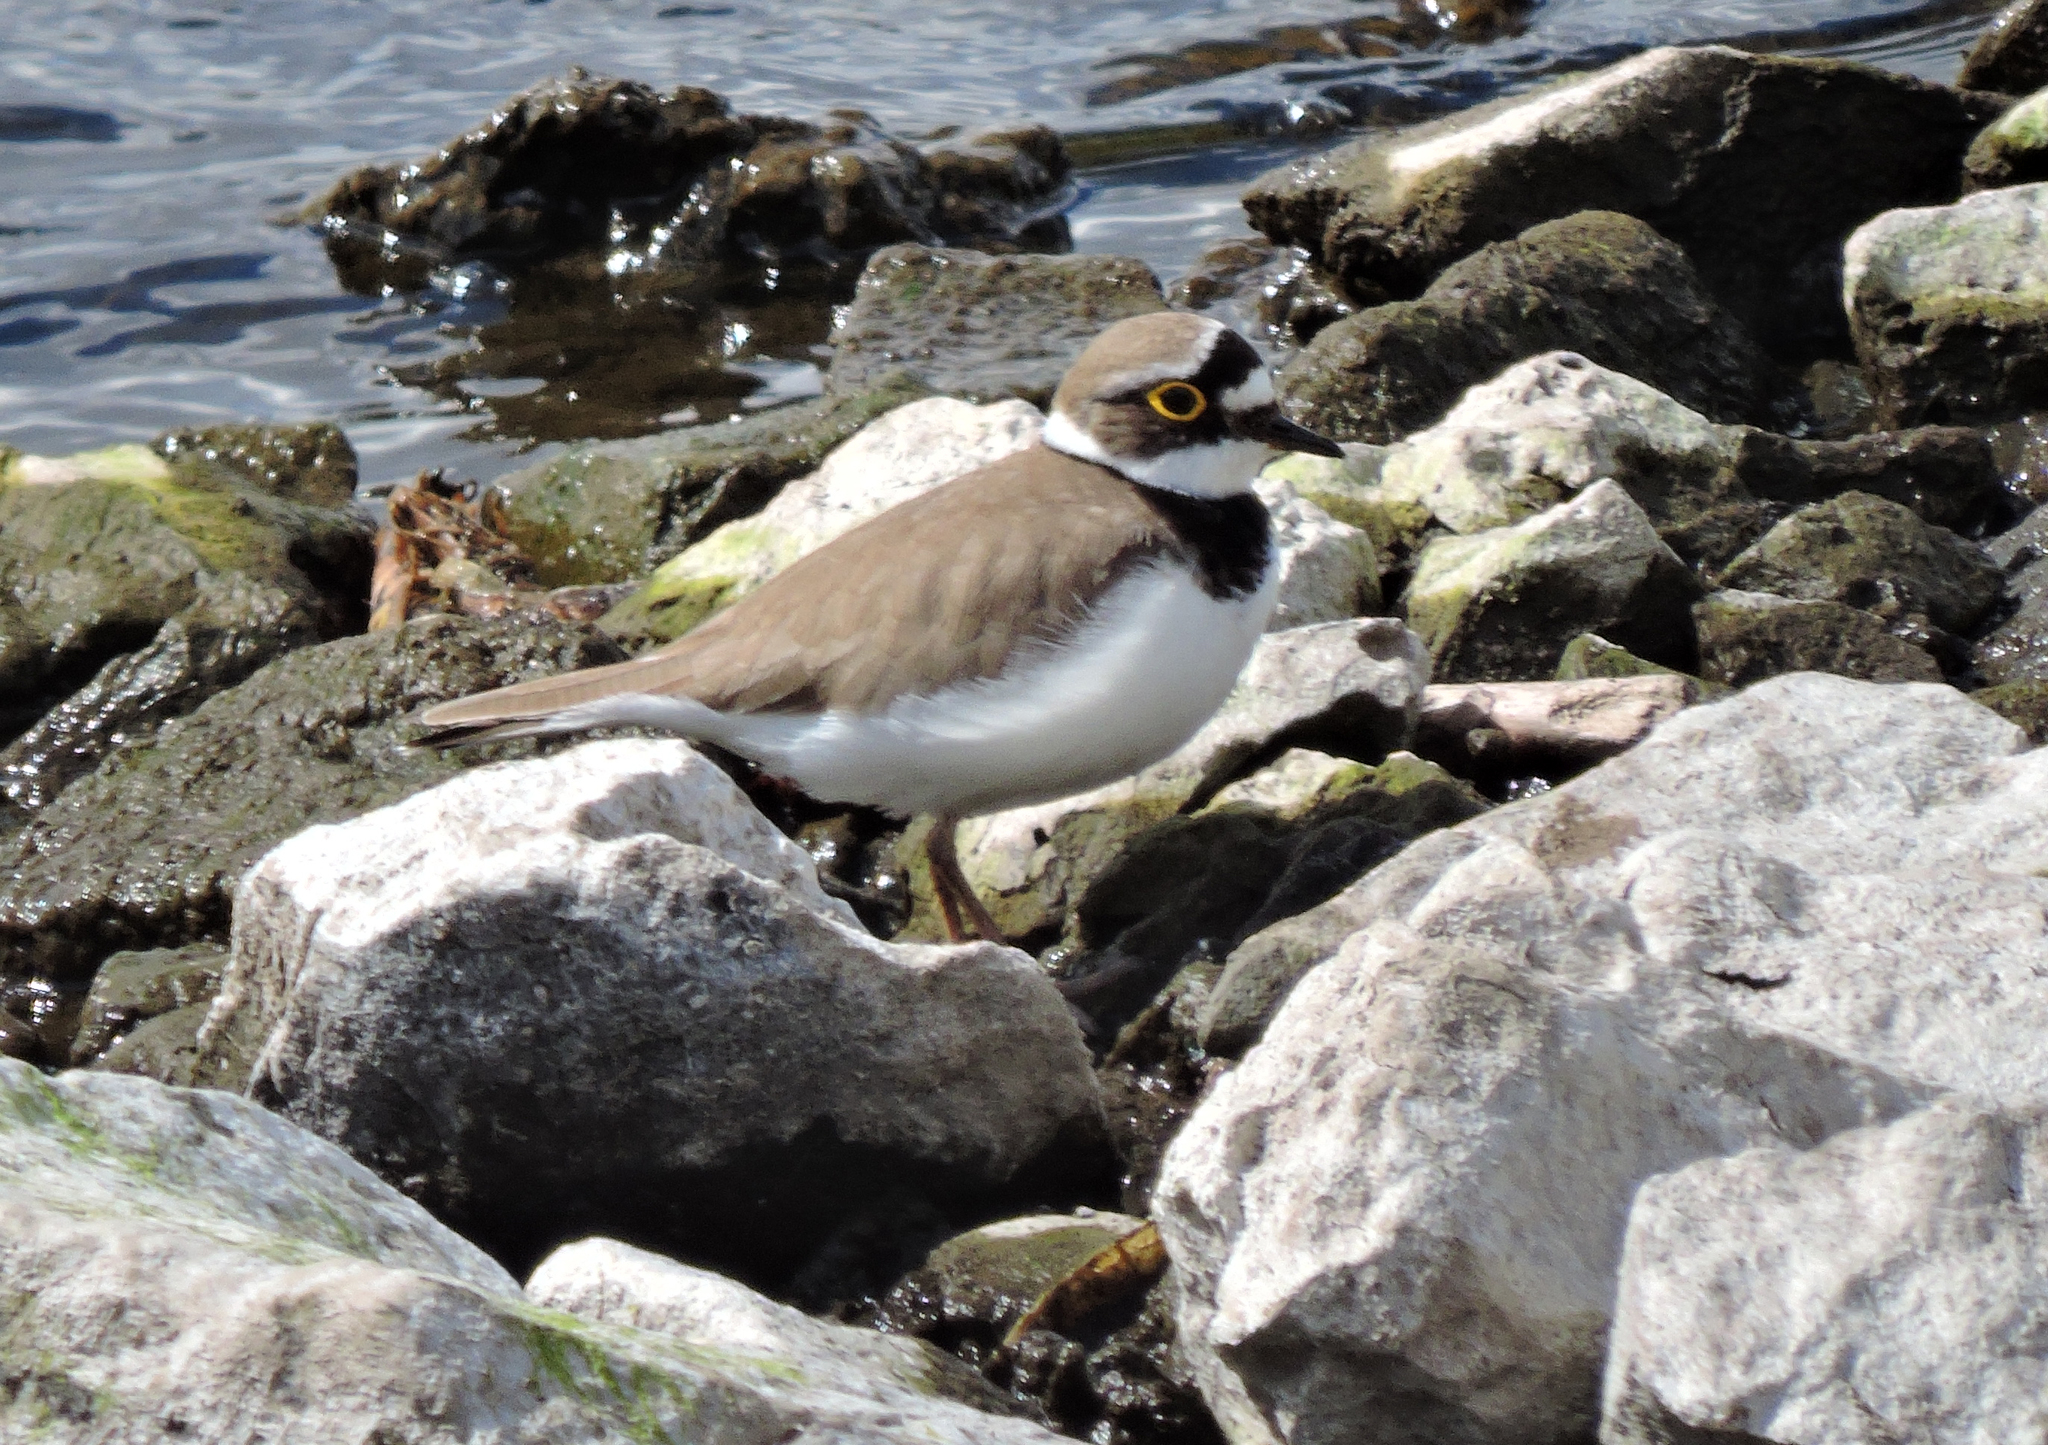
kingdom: Animalia
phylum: Chordata
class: Aves
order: Charadriiformes
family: Charadriidae
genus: Charadrius
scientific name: Charadrius dubius
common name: Little ringed plover
